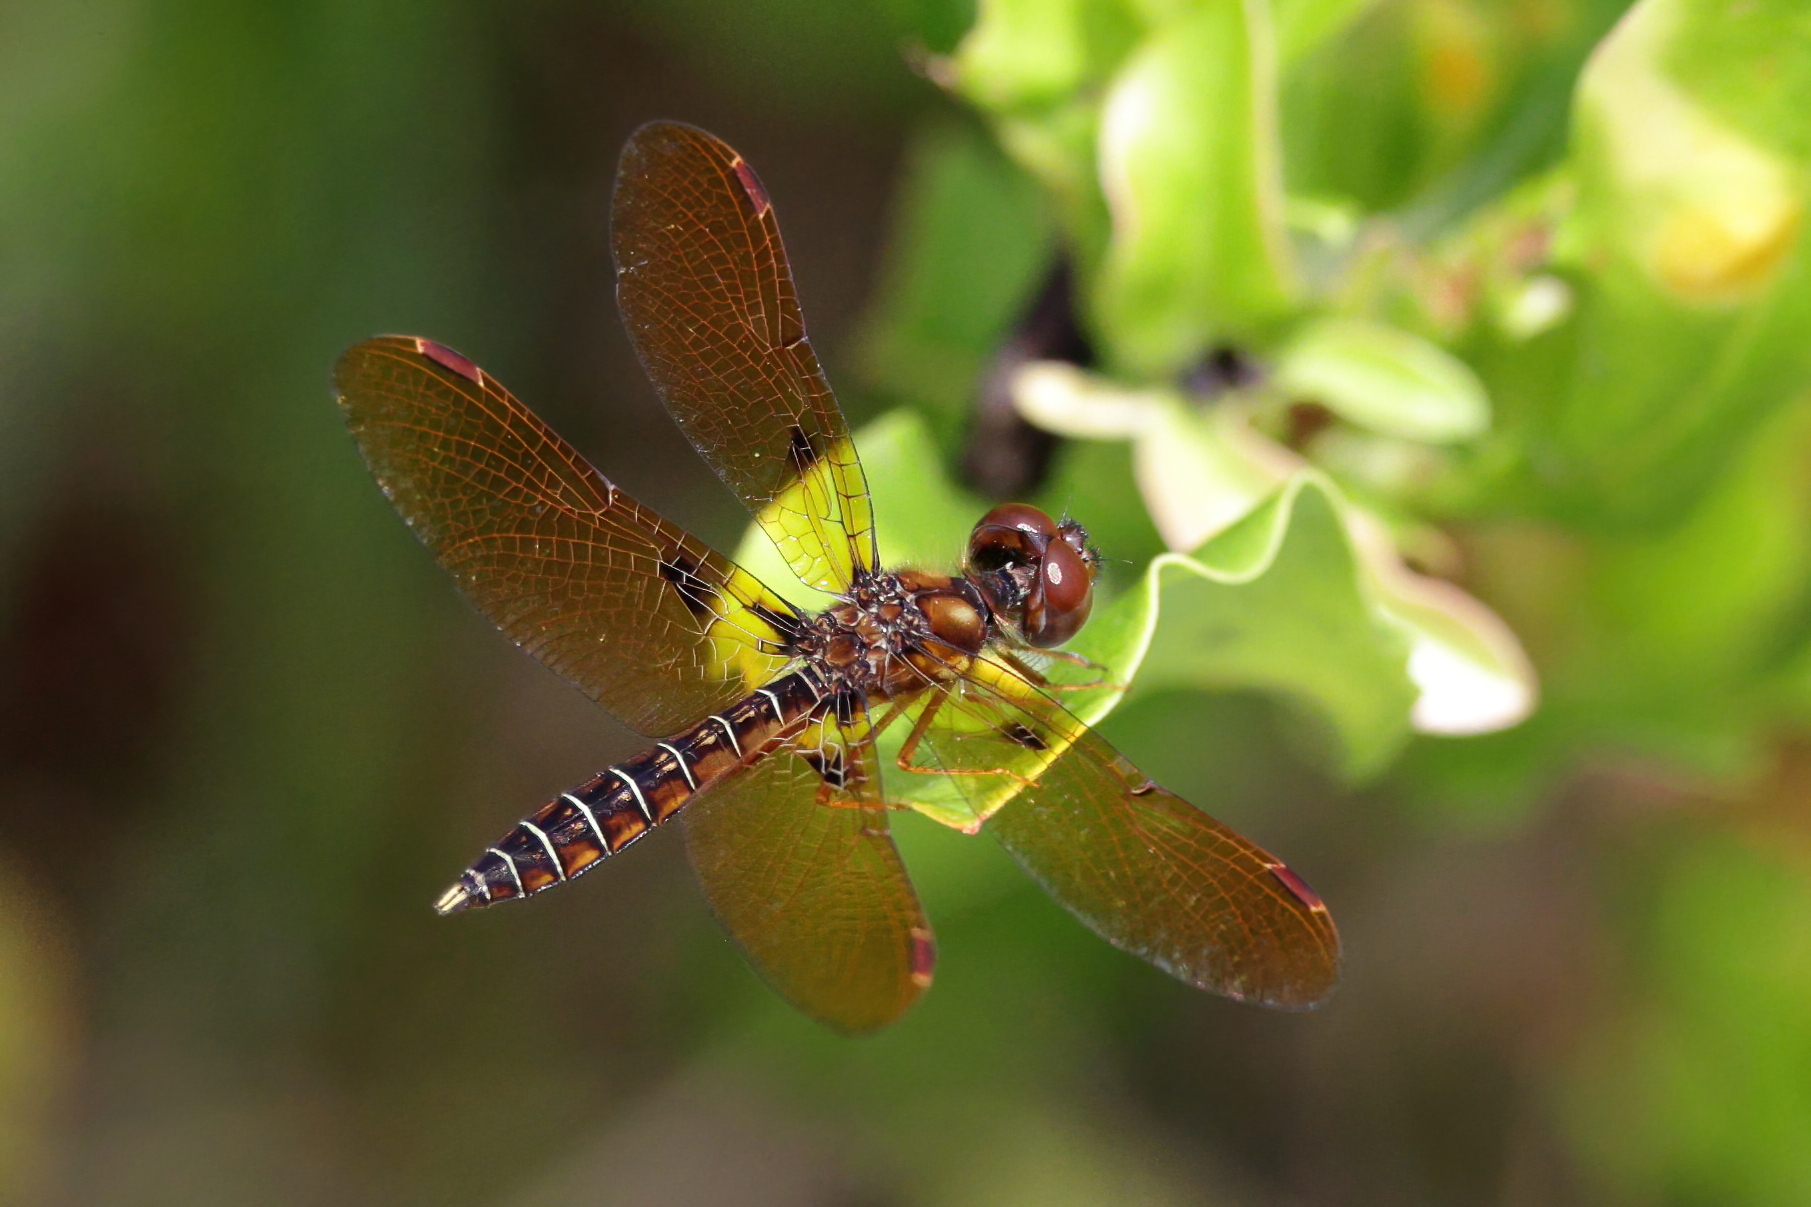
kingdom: Animalia
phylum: Arthropoda
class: Insecta
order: Odonata
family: Libellulidae
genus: Perithemis
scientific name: Perithemis tenera
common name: Eastern amberwing
